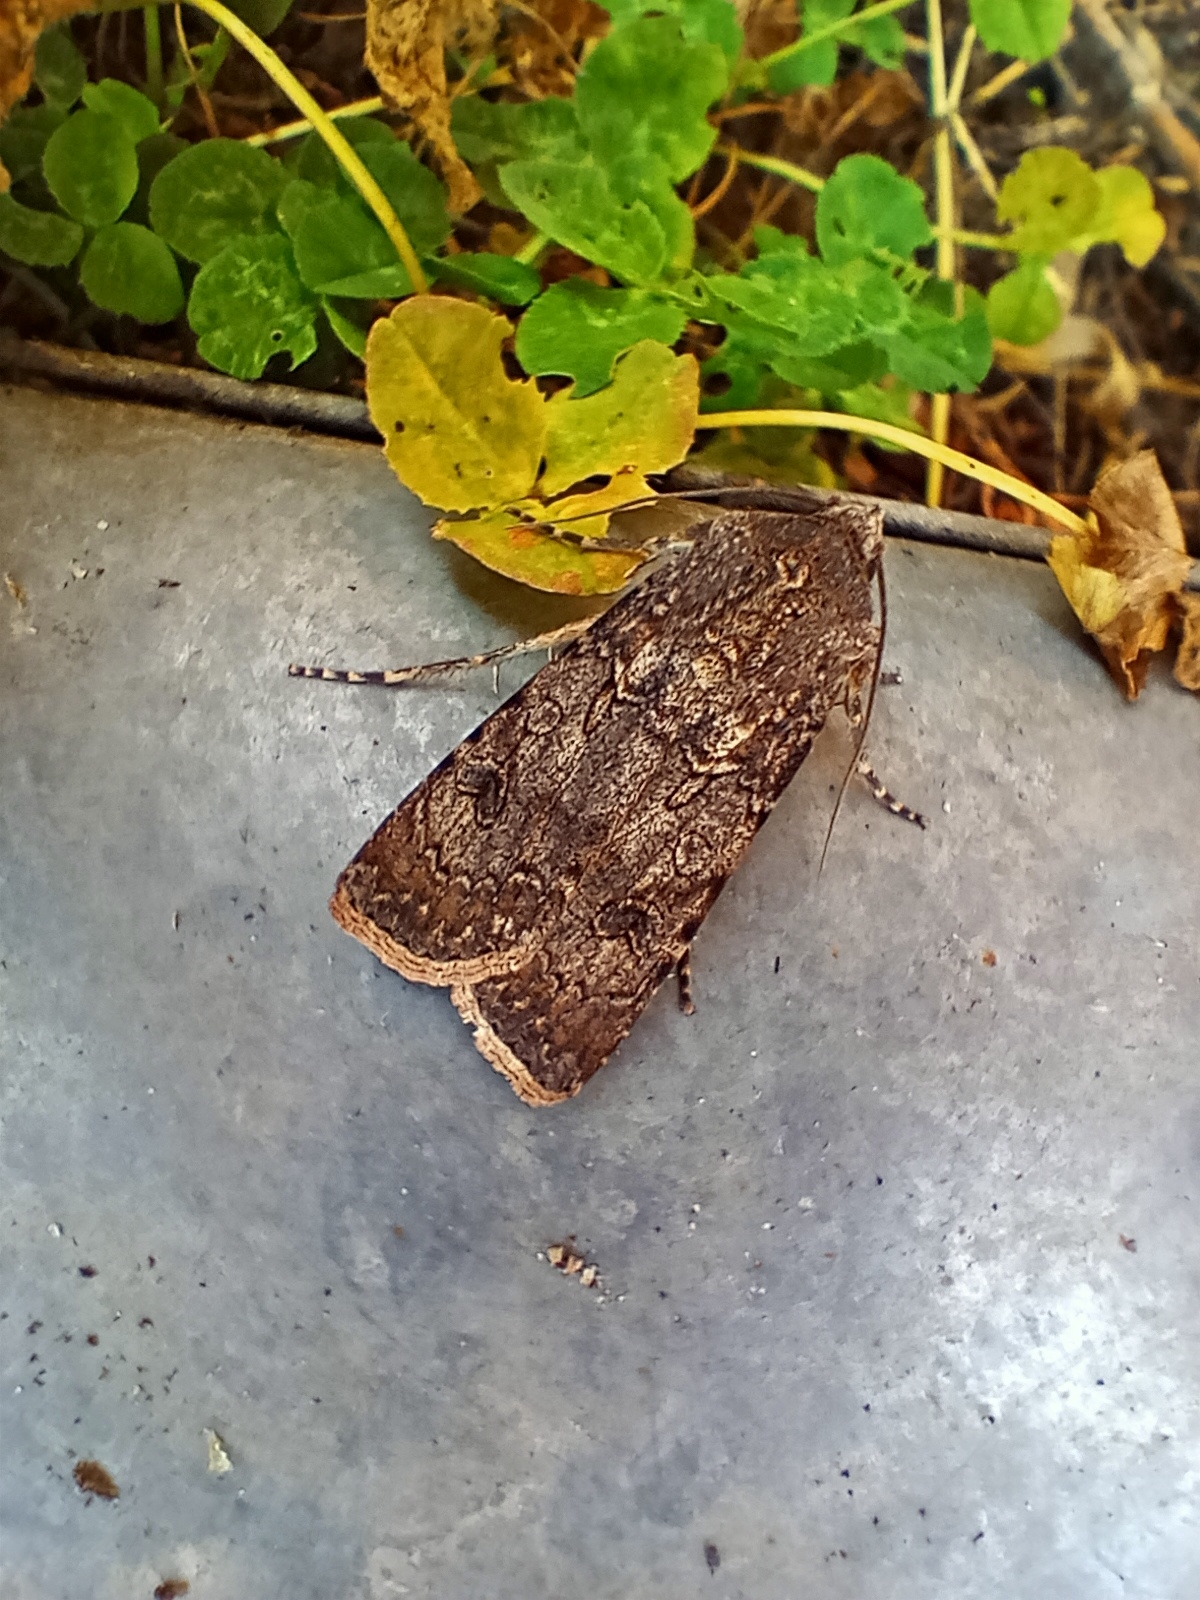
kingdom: Animalia
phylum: Arthropoda
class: Insecta
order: Lepidoptera
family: Noctuidae
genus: Agrotis
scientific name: Agrotis segetum
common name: Turnip moth
